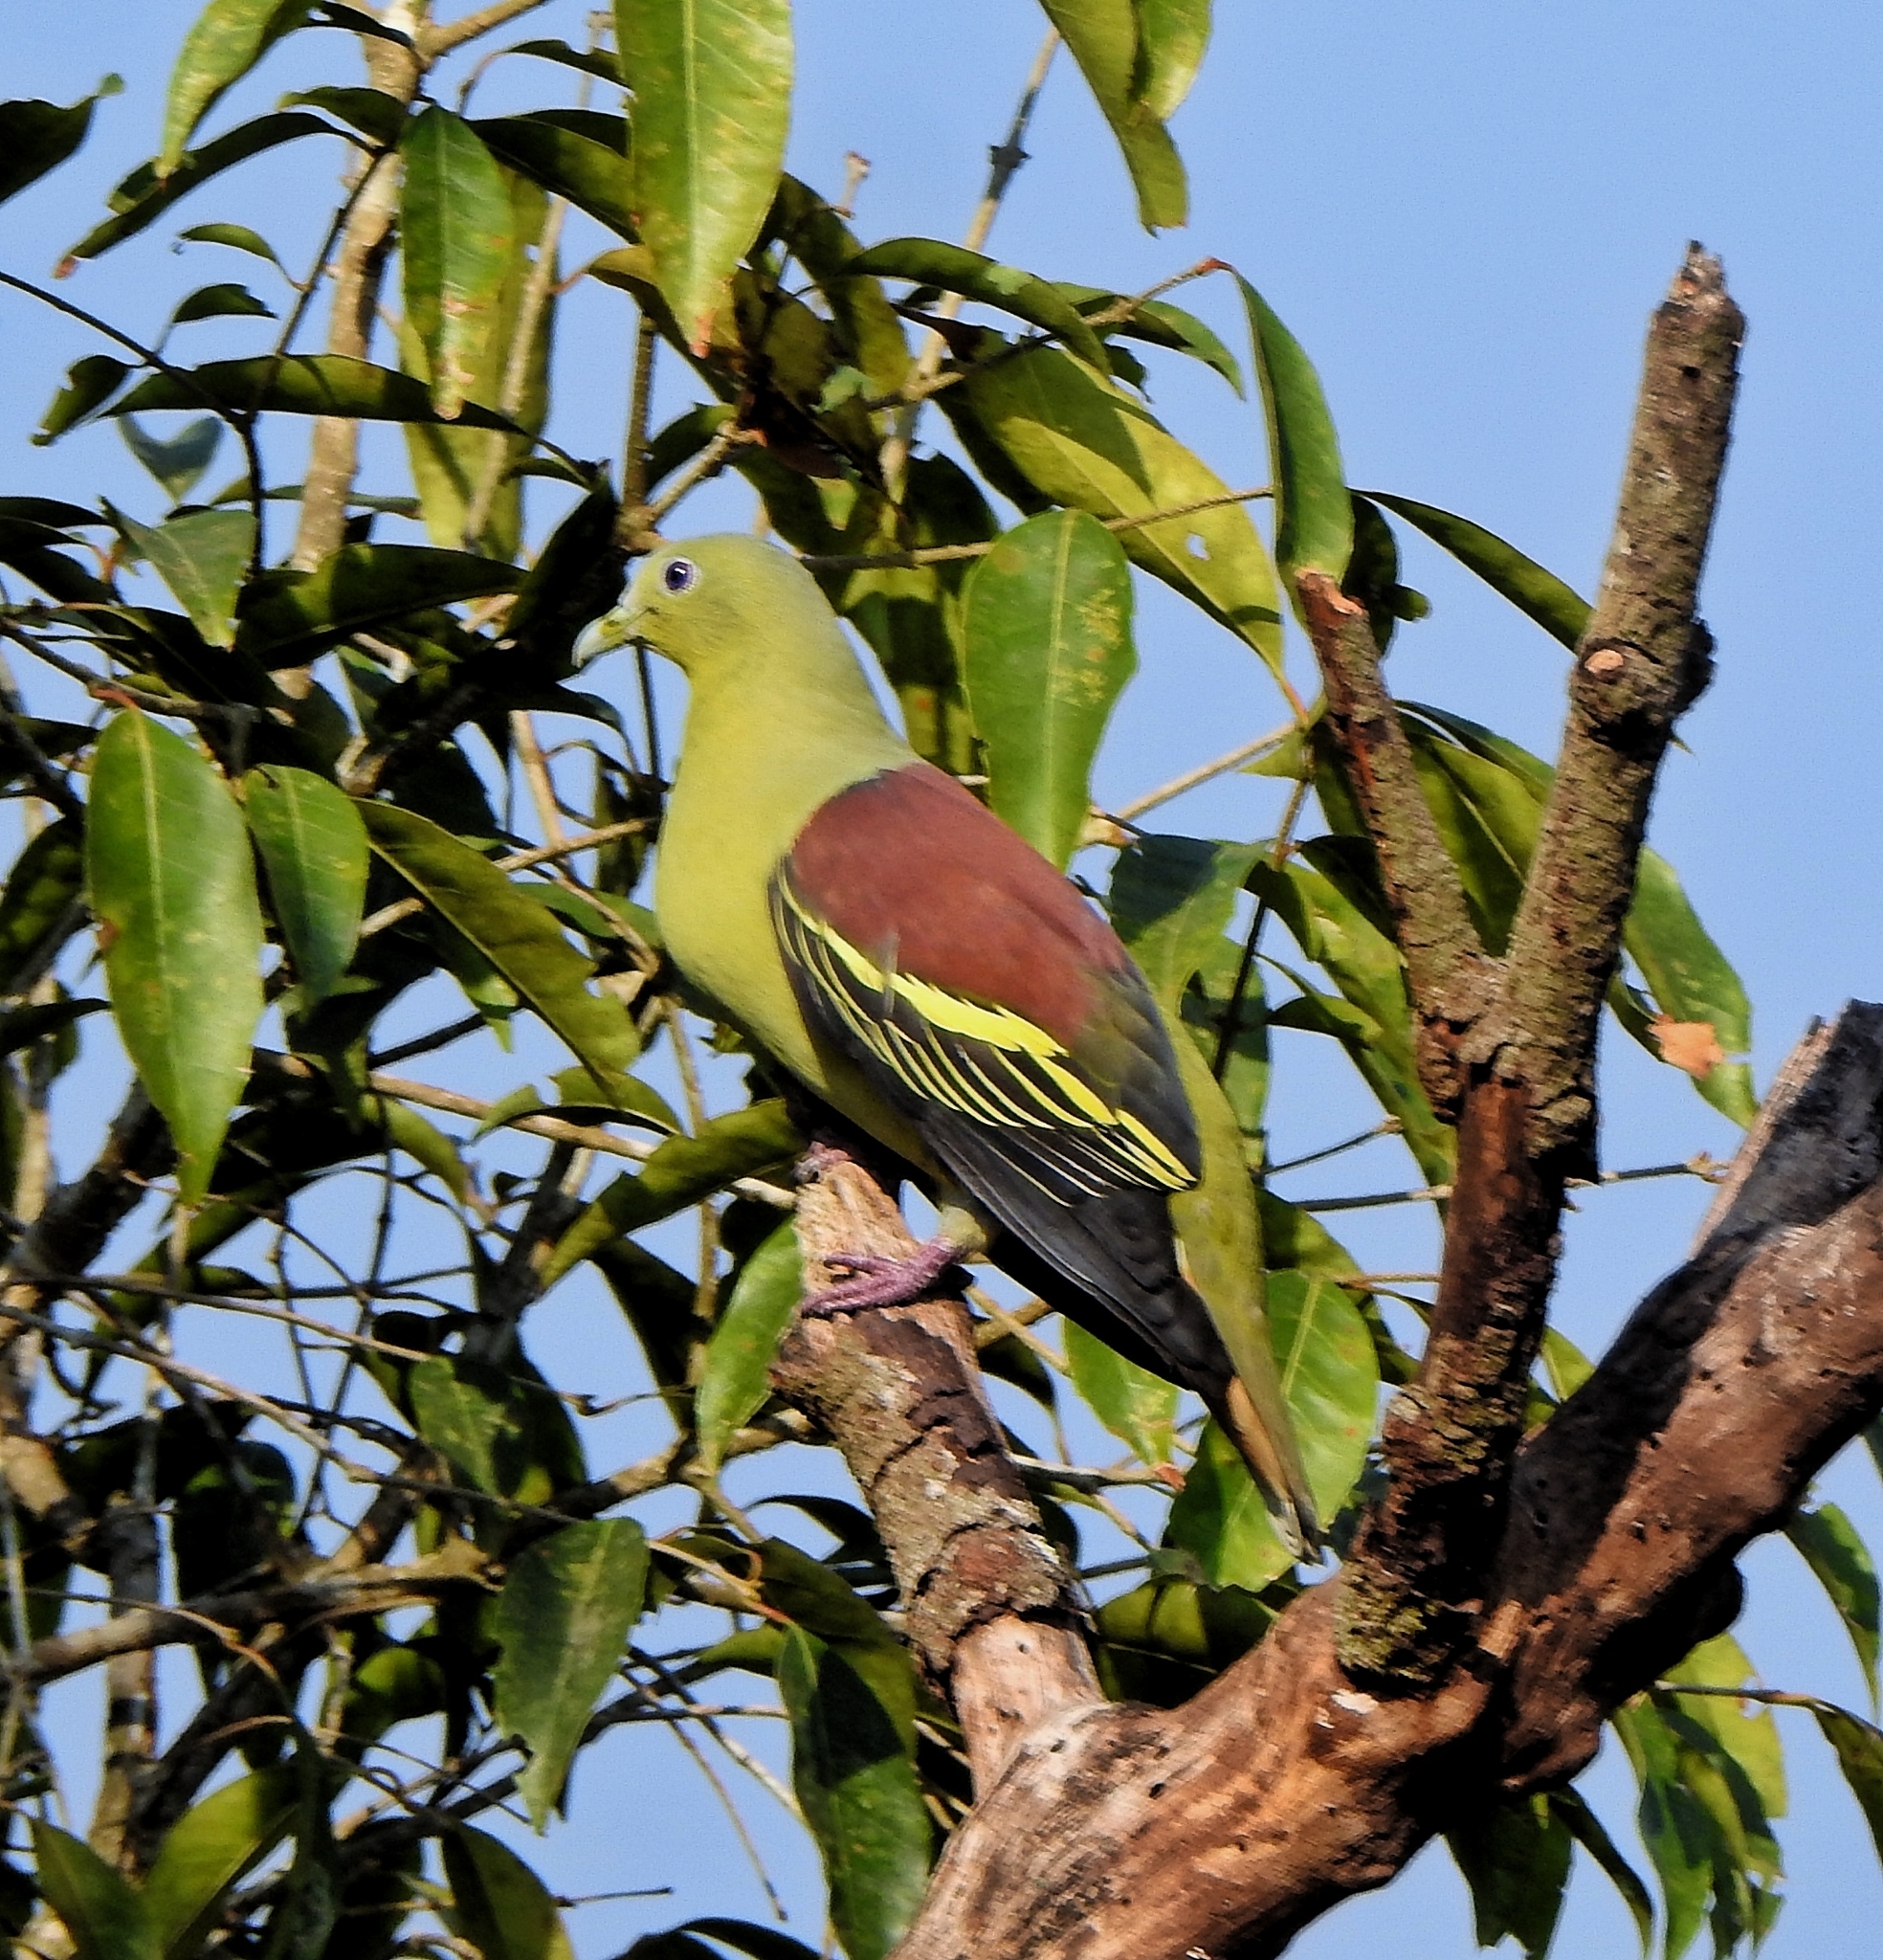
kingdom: Animalia
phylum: Chordata
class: Aves
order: Columbiformes
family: Columbidae
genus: Treron
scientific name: Treron affinis
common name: Grey-fronted green pigeon
